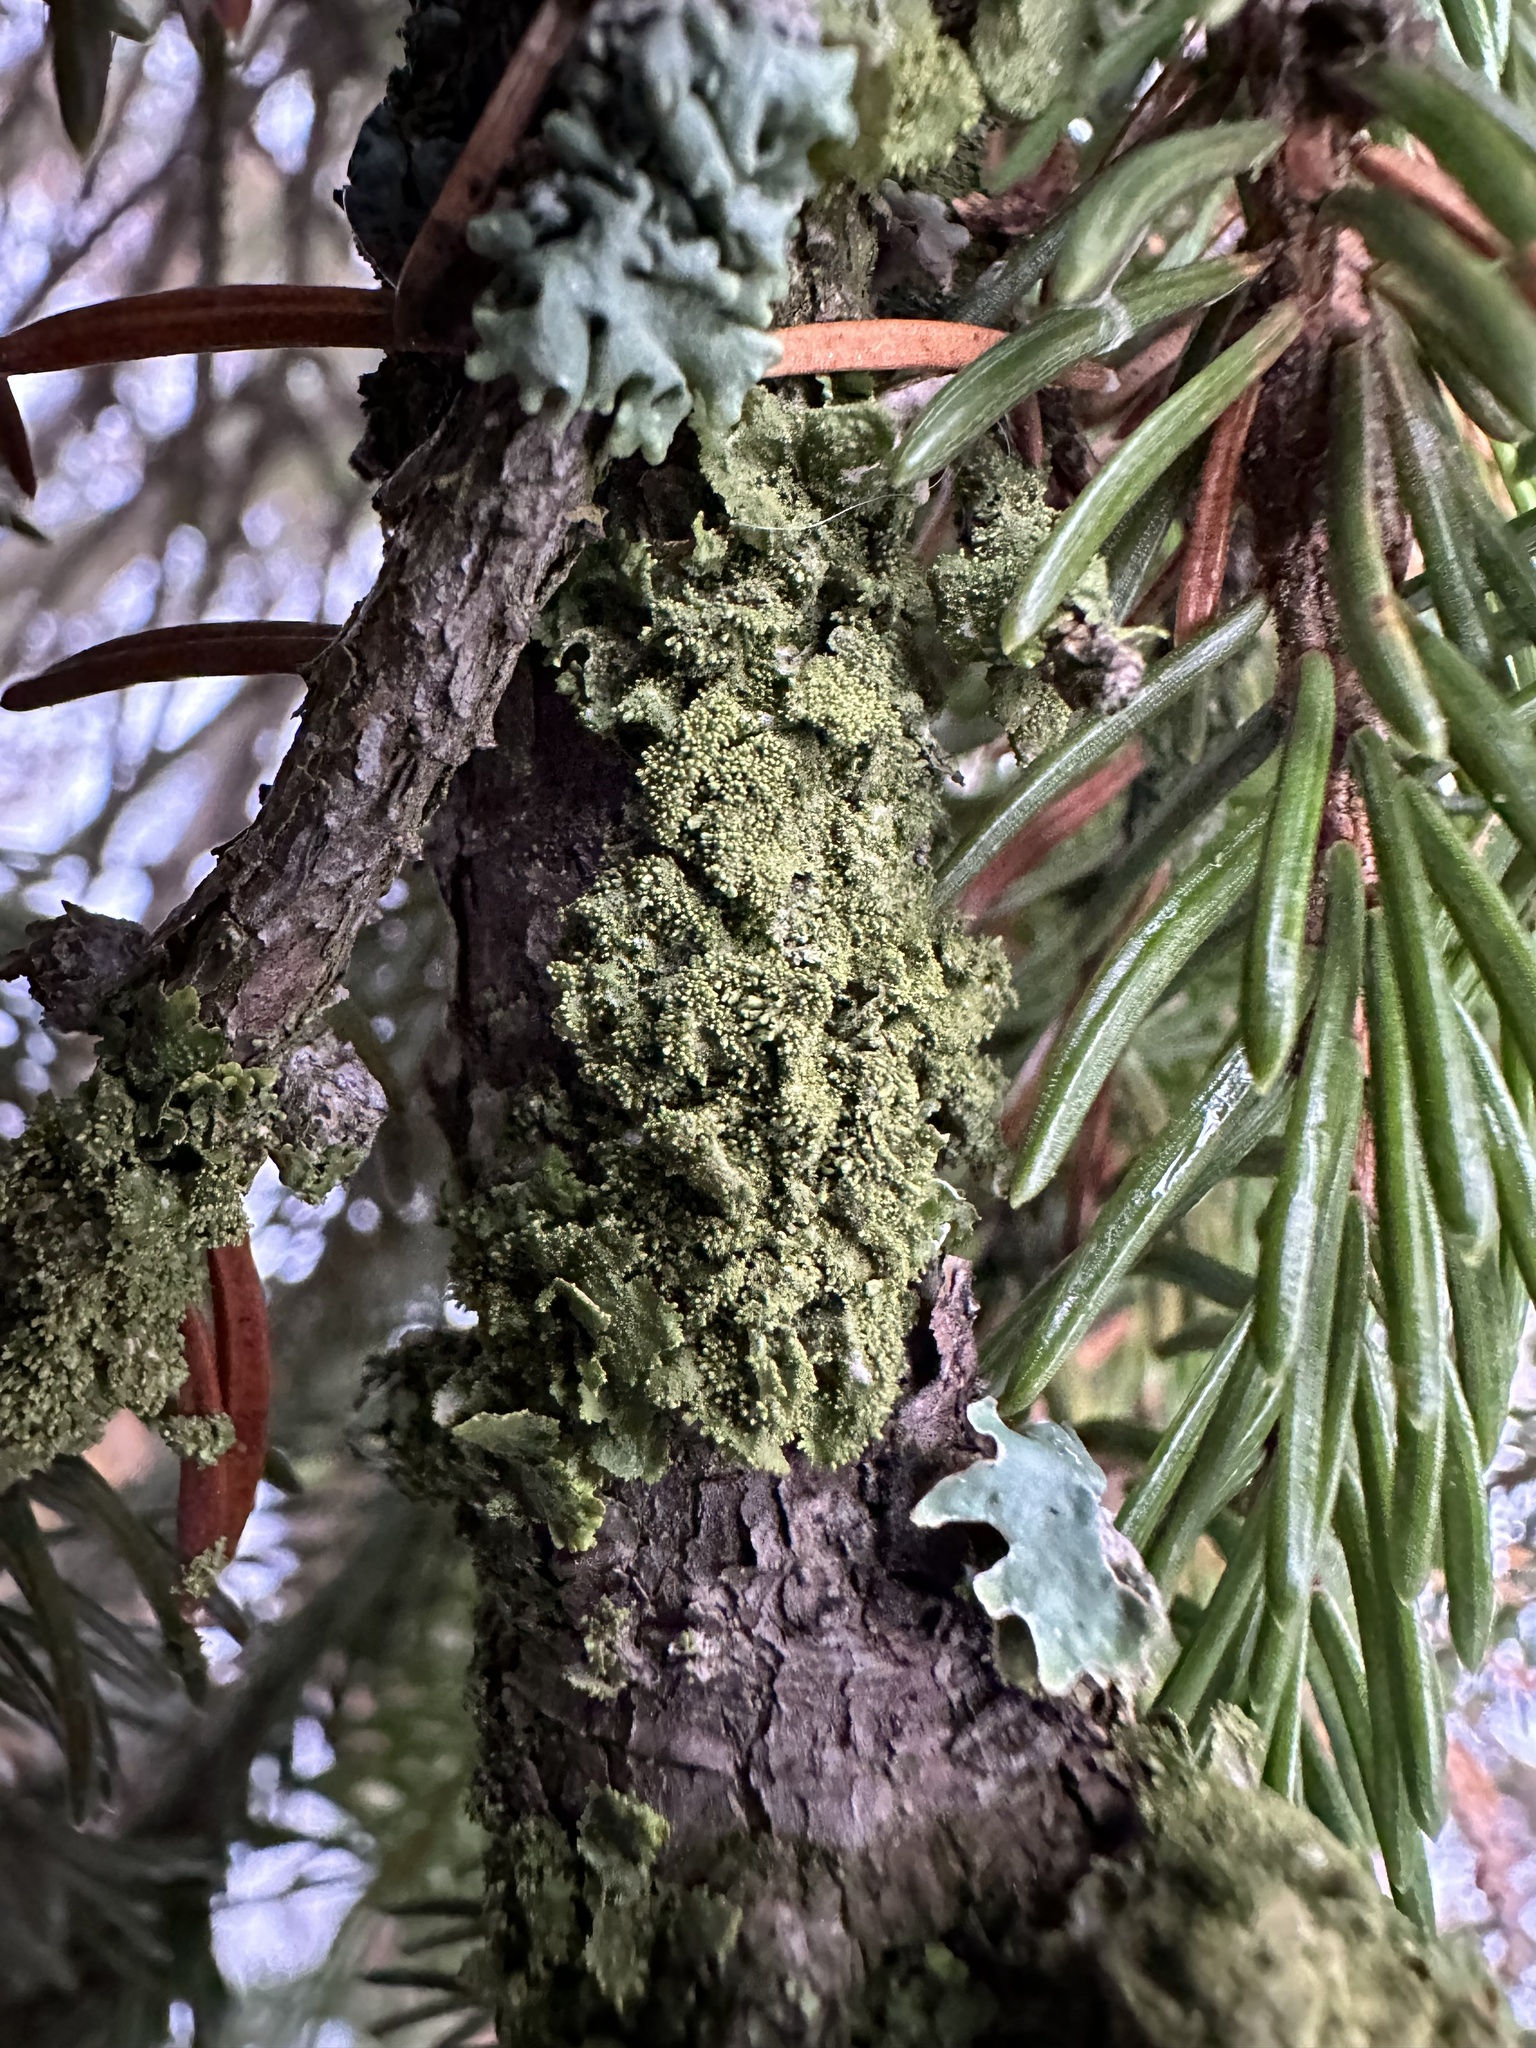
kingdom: Fungi
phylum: Ascomycota
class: Lecanoromycetes
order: Lecanorales
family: Parmeliaceae
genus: Melanohalea
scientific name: Melanohalea exasperatula
